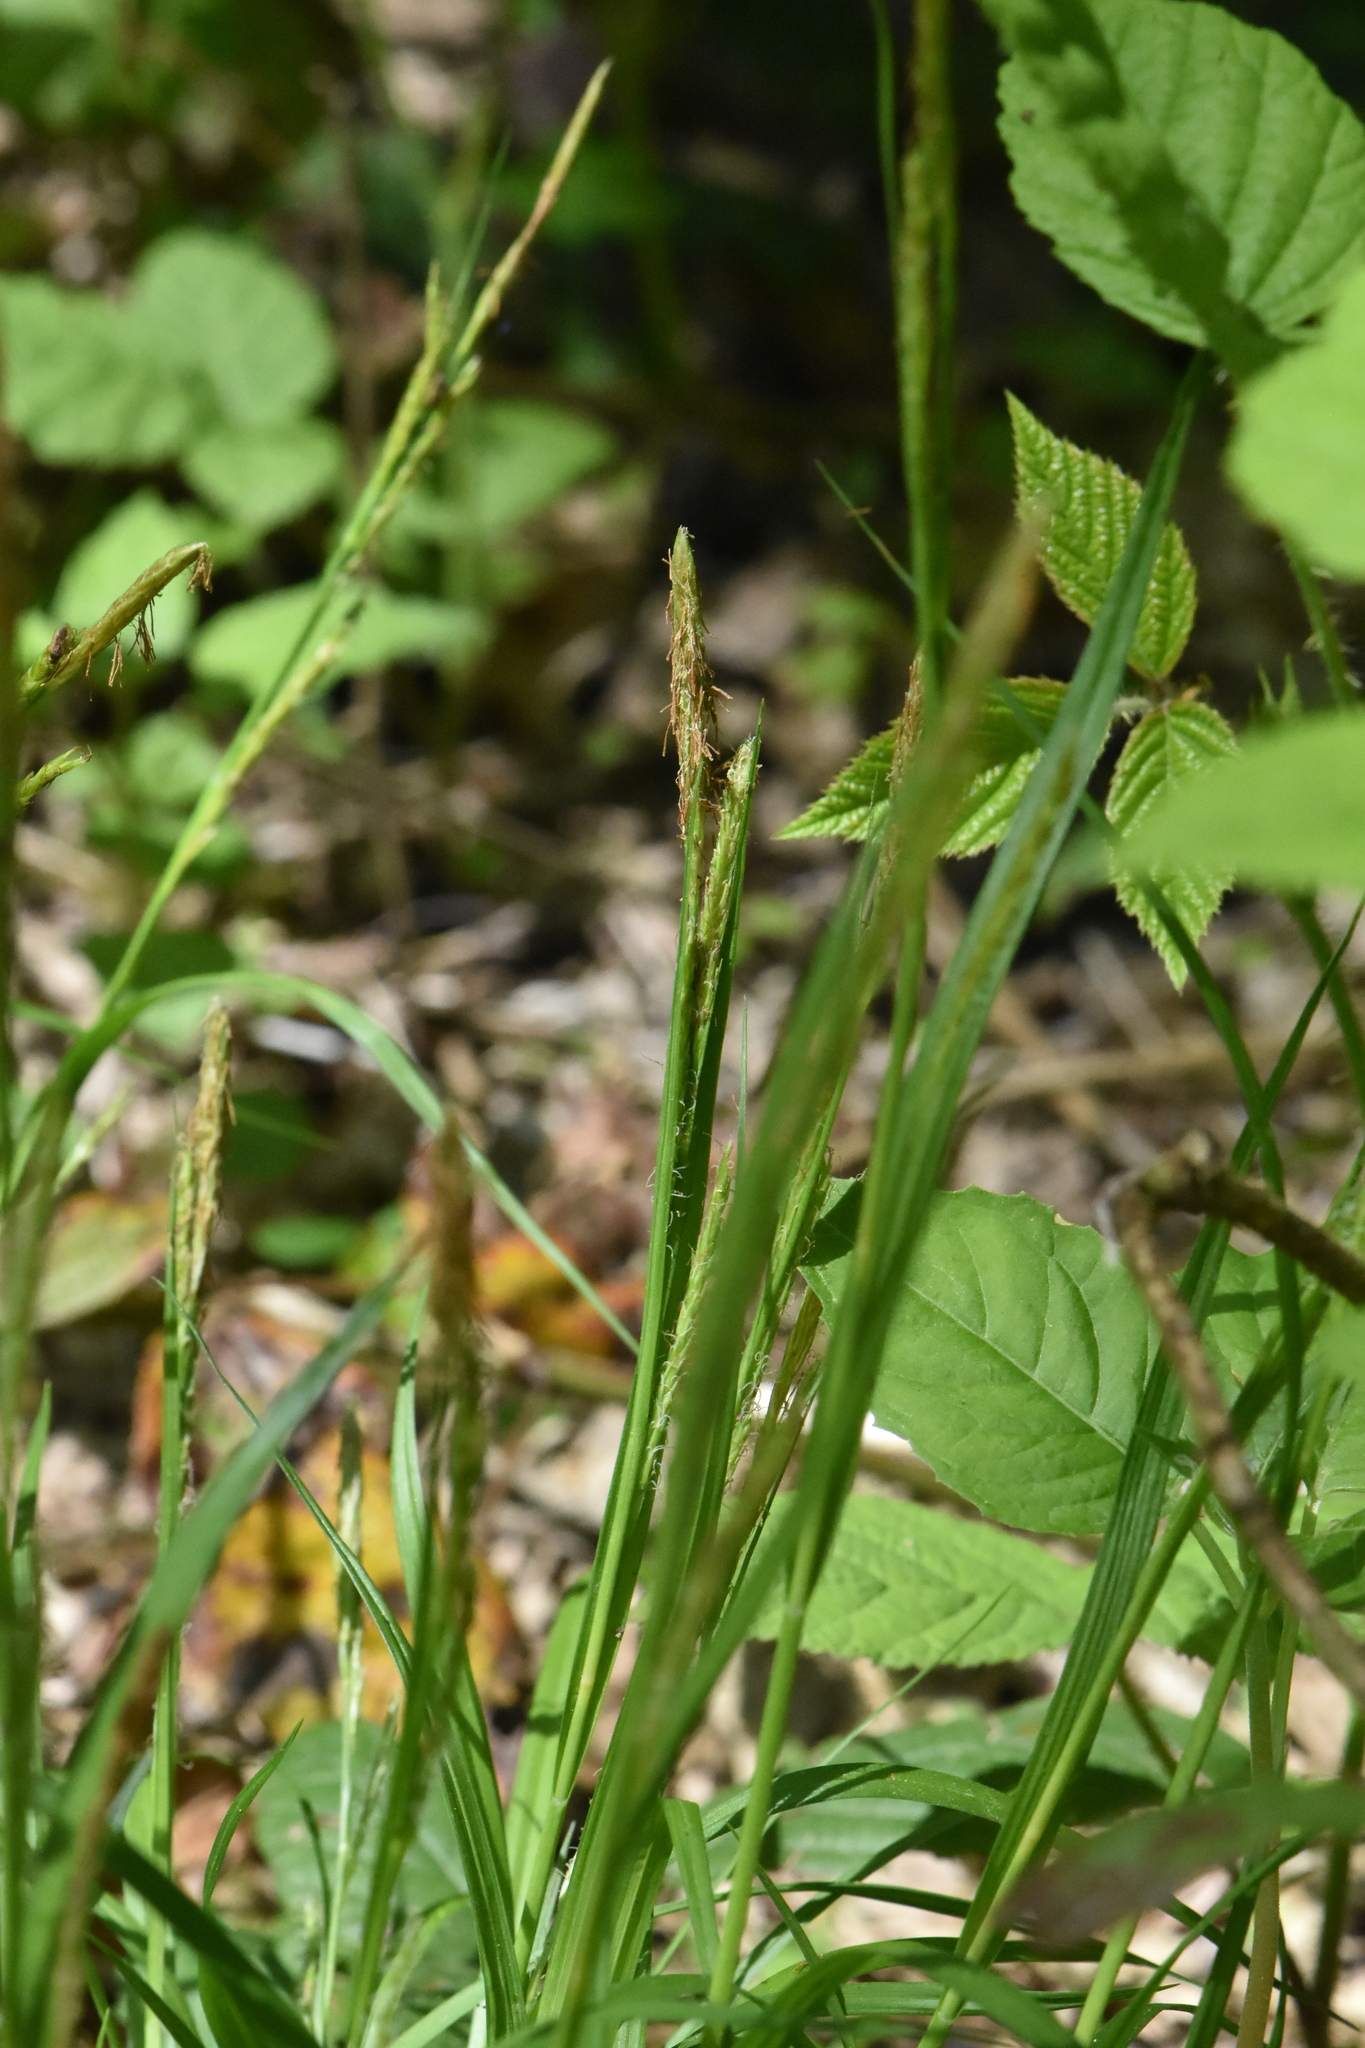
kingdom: Plantae
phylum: Tracheophyta
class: Liliopsida
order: Poales
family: Cyperaceae
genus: Carex
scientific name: Carex sylvatica
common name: Wood-sedge
